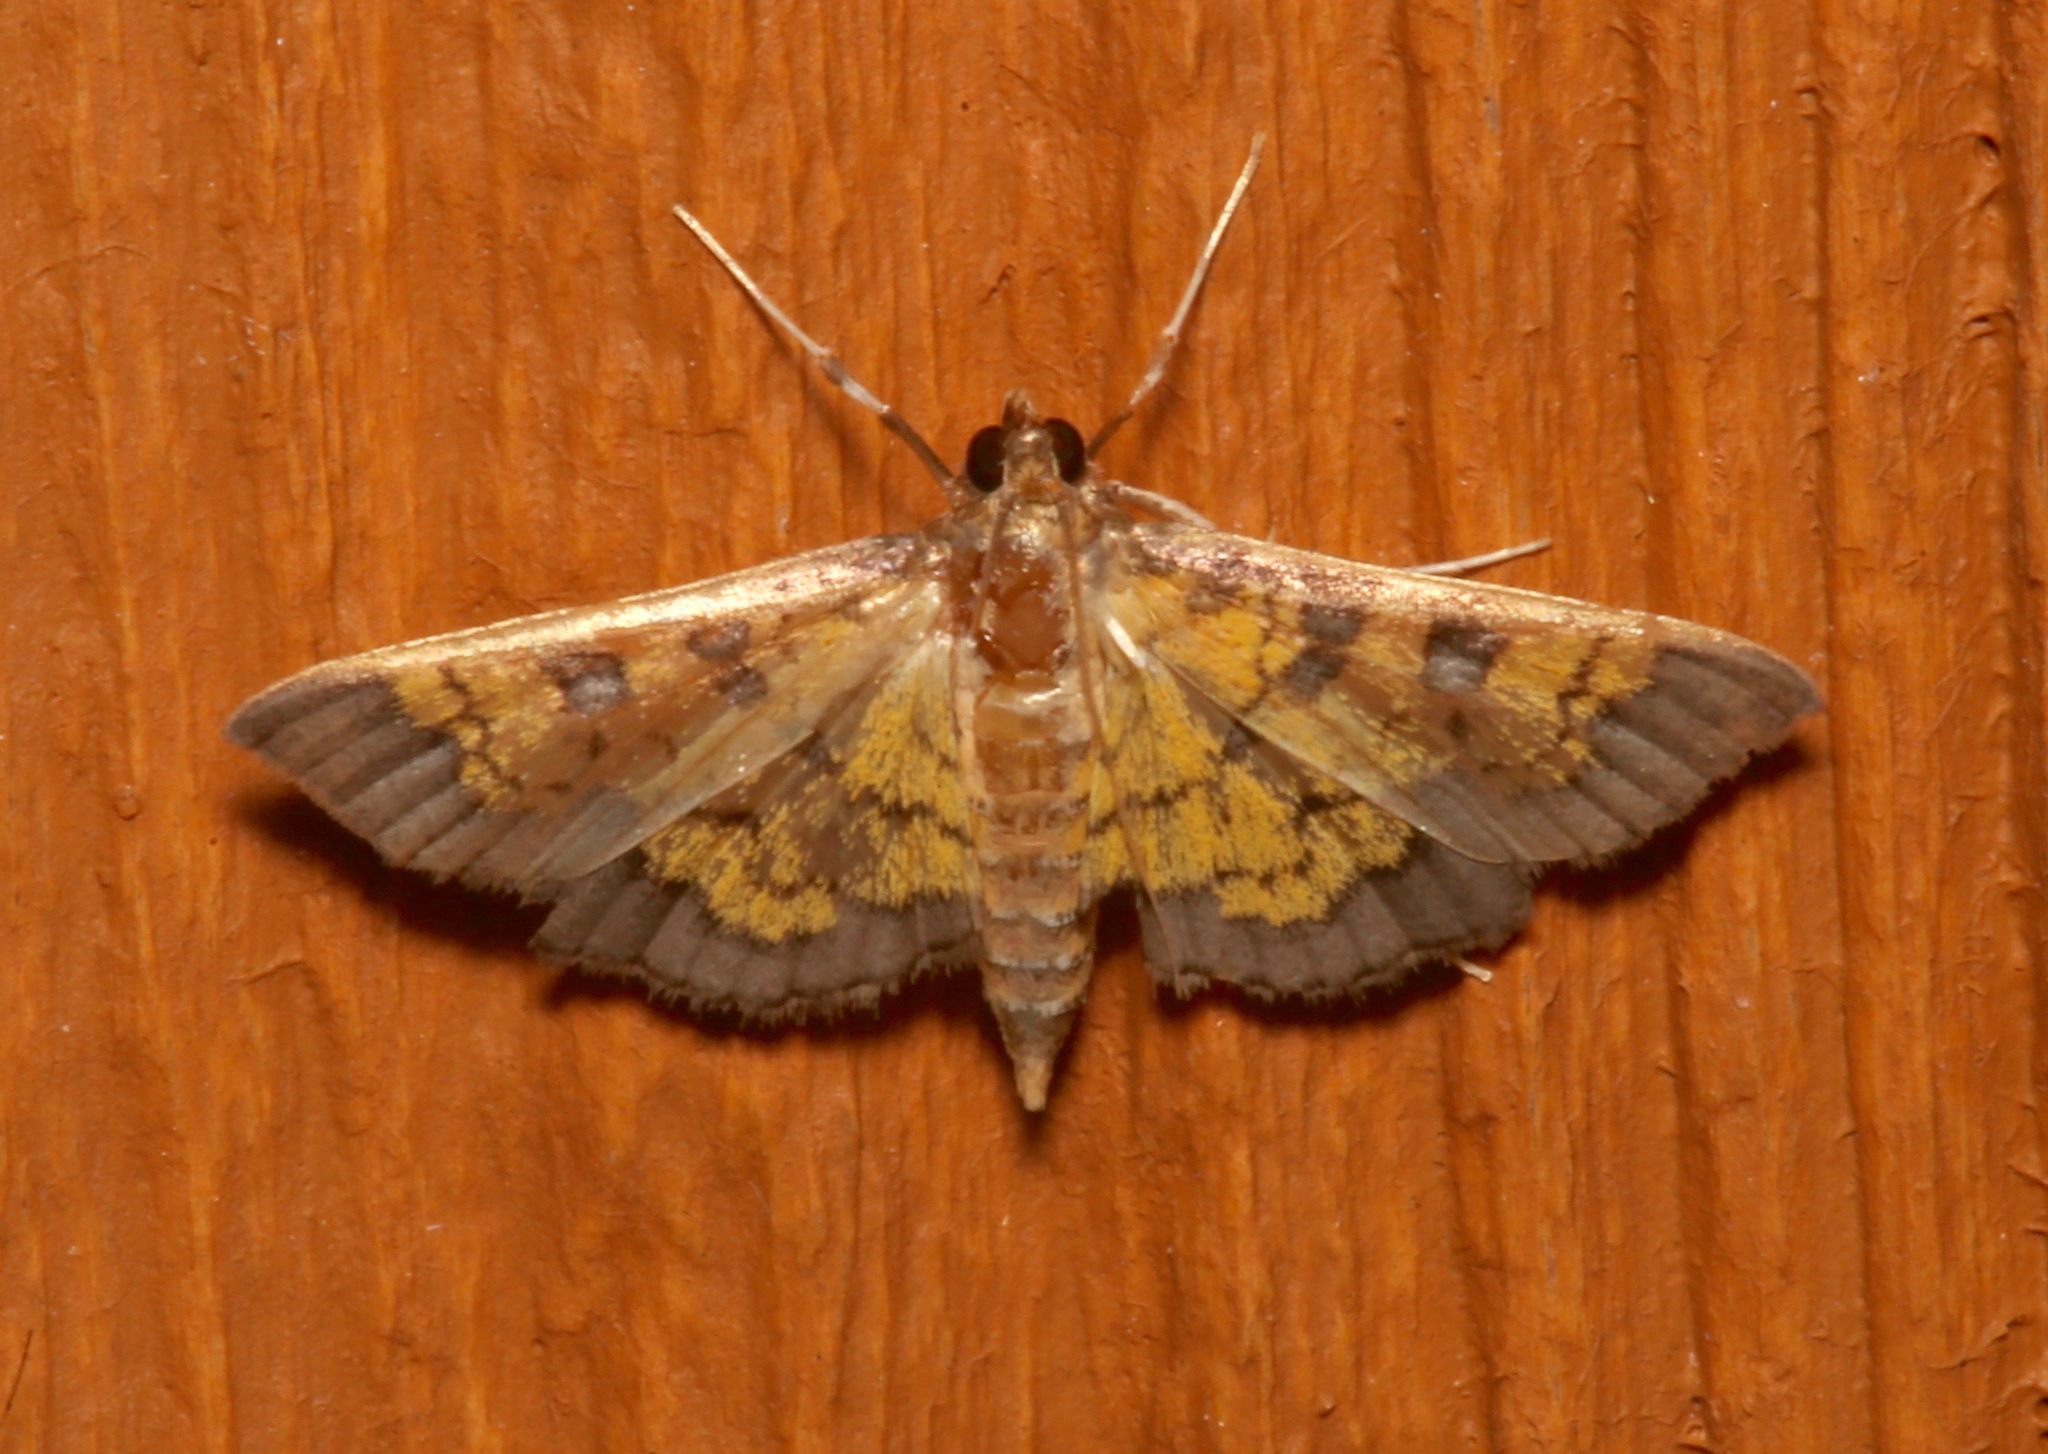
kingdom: Animalia
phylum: Arthropoda
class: Insecta
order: Lepidoptera
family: Crambidae
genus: Epipagis
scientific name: Epipagis adipaloides
